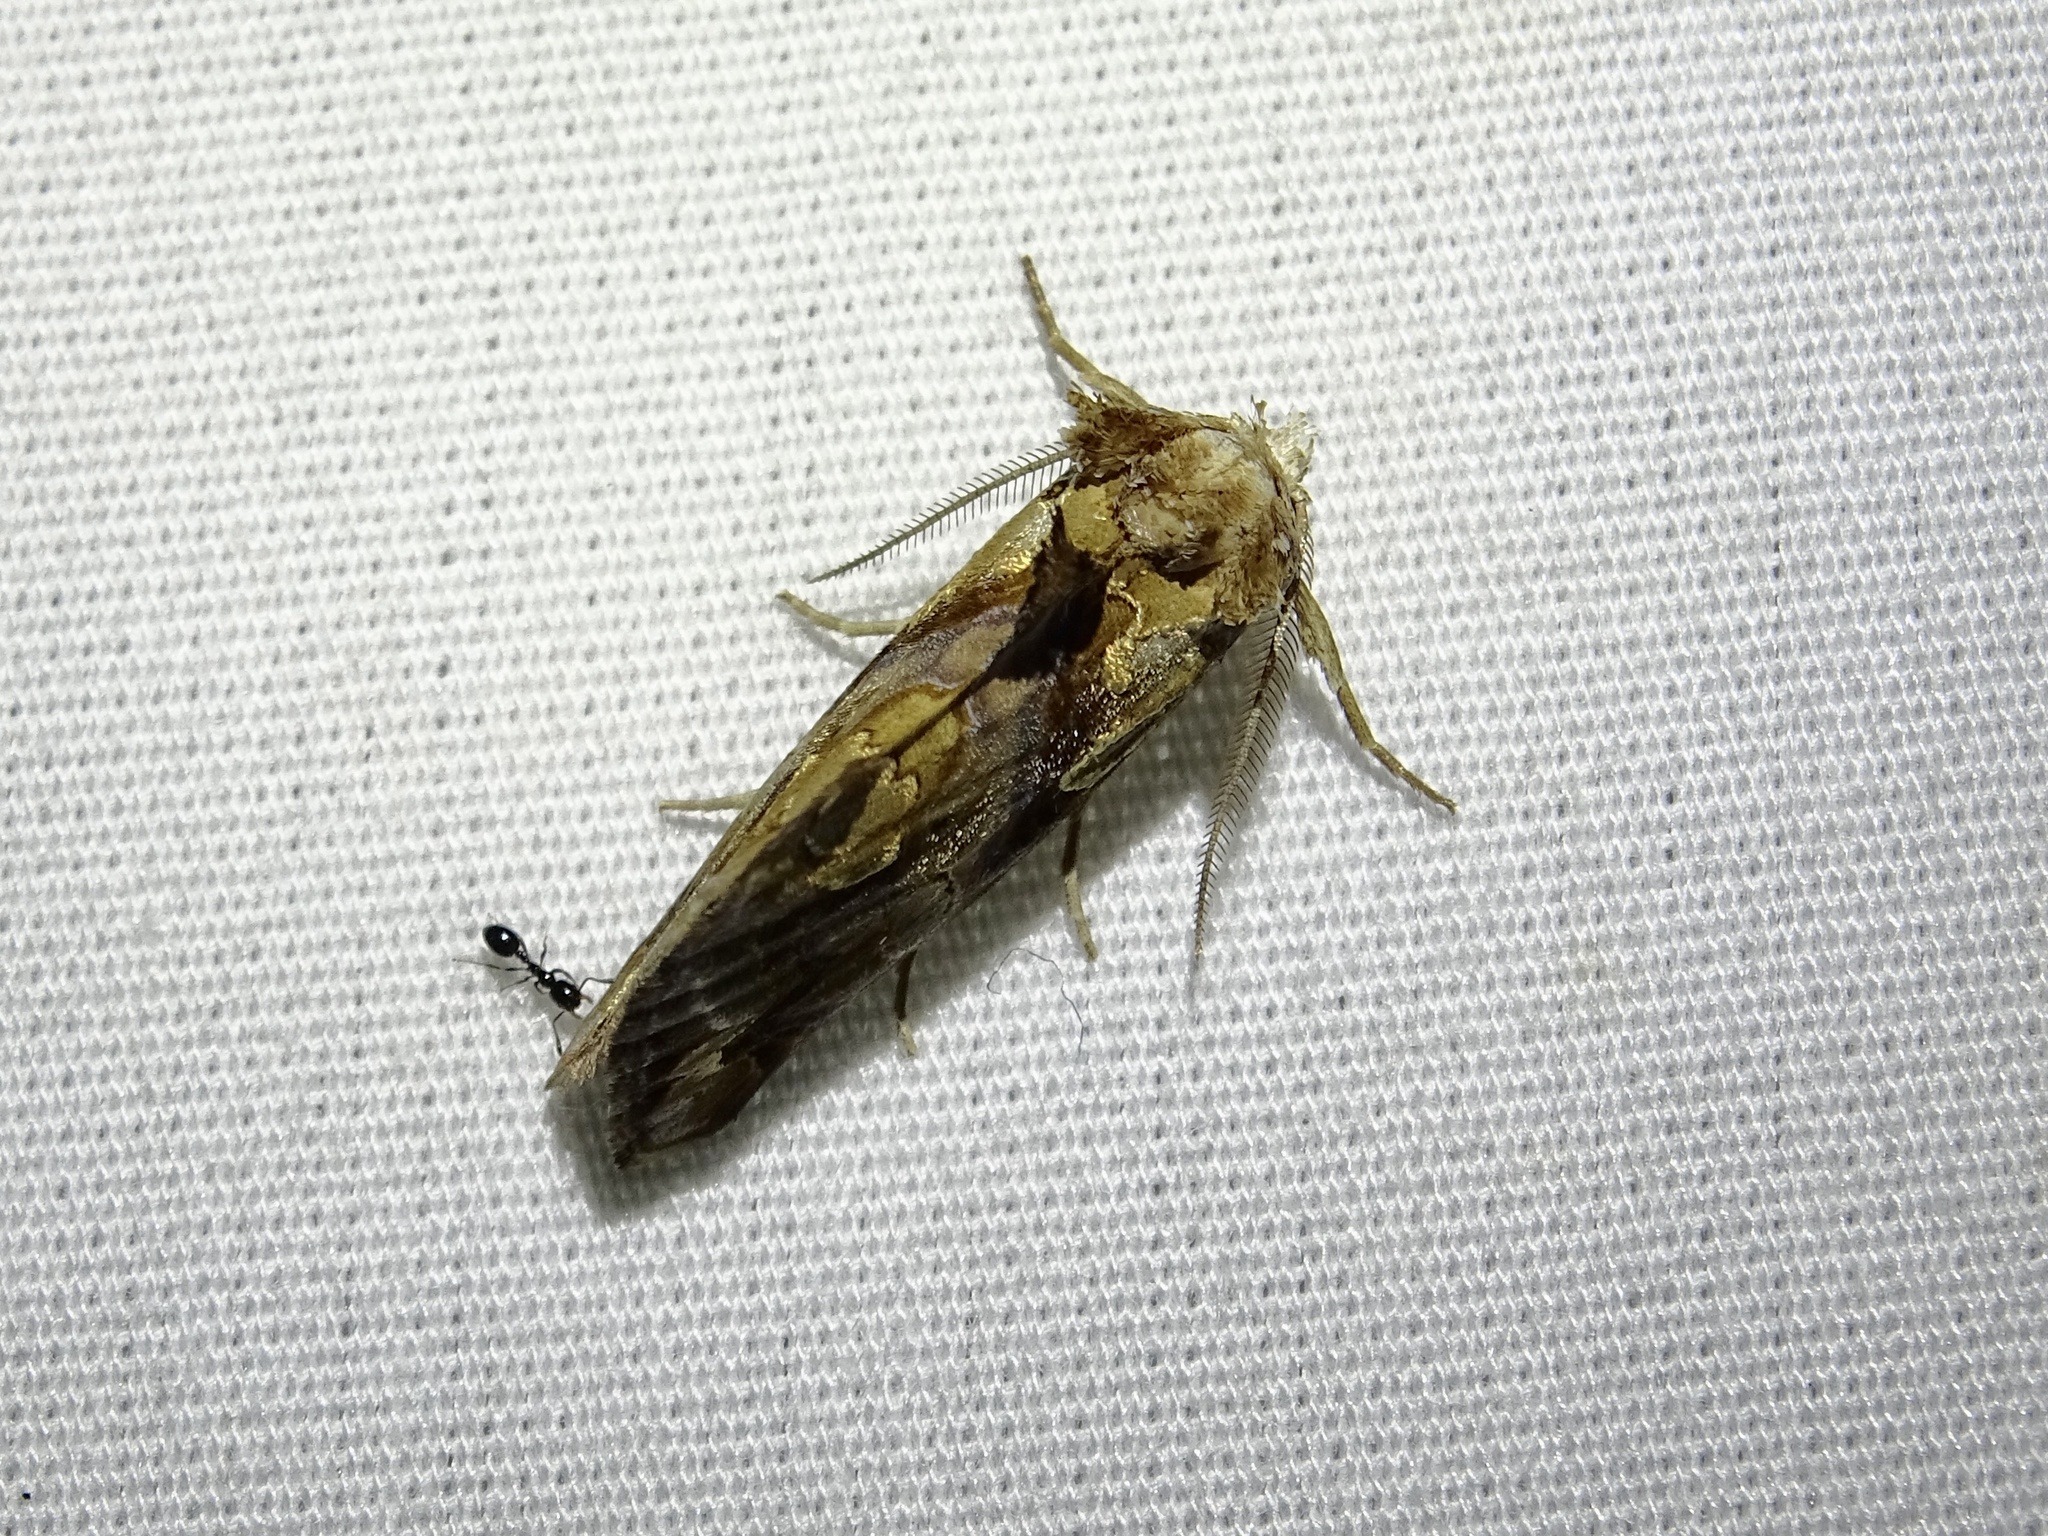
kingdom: Animalia
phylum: Arthropoda
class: Insecta
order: Lepidoptera
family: Erebidae
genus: Plusiodonta
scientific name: Plusiodonta compressipalpis
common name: Moonseed moth
